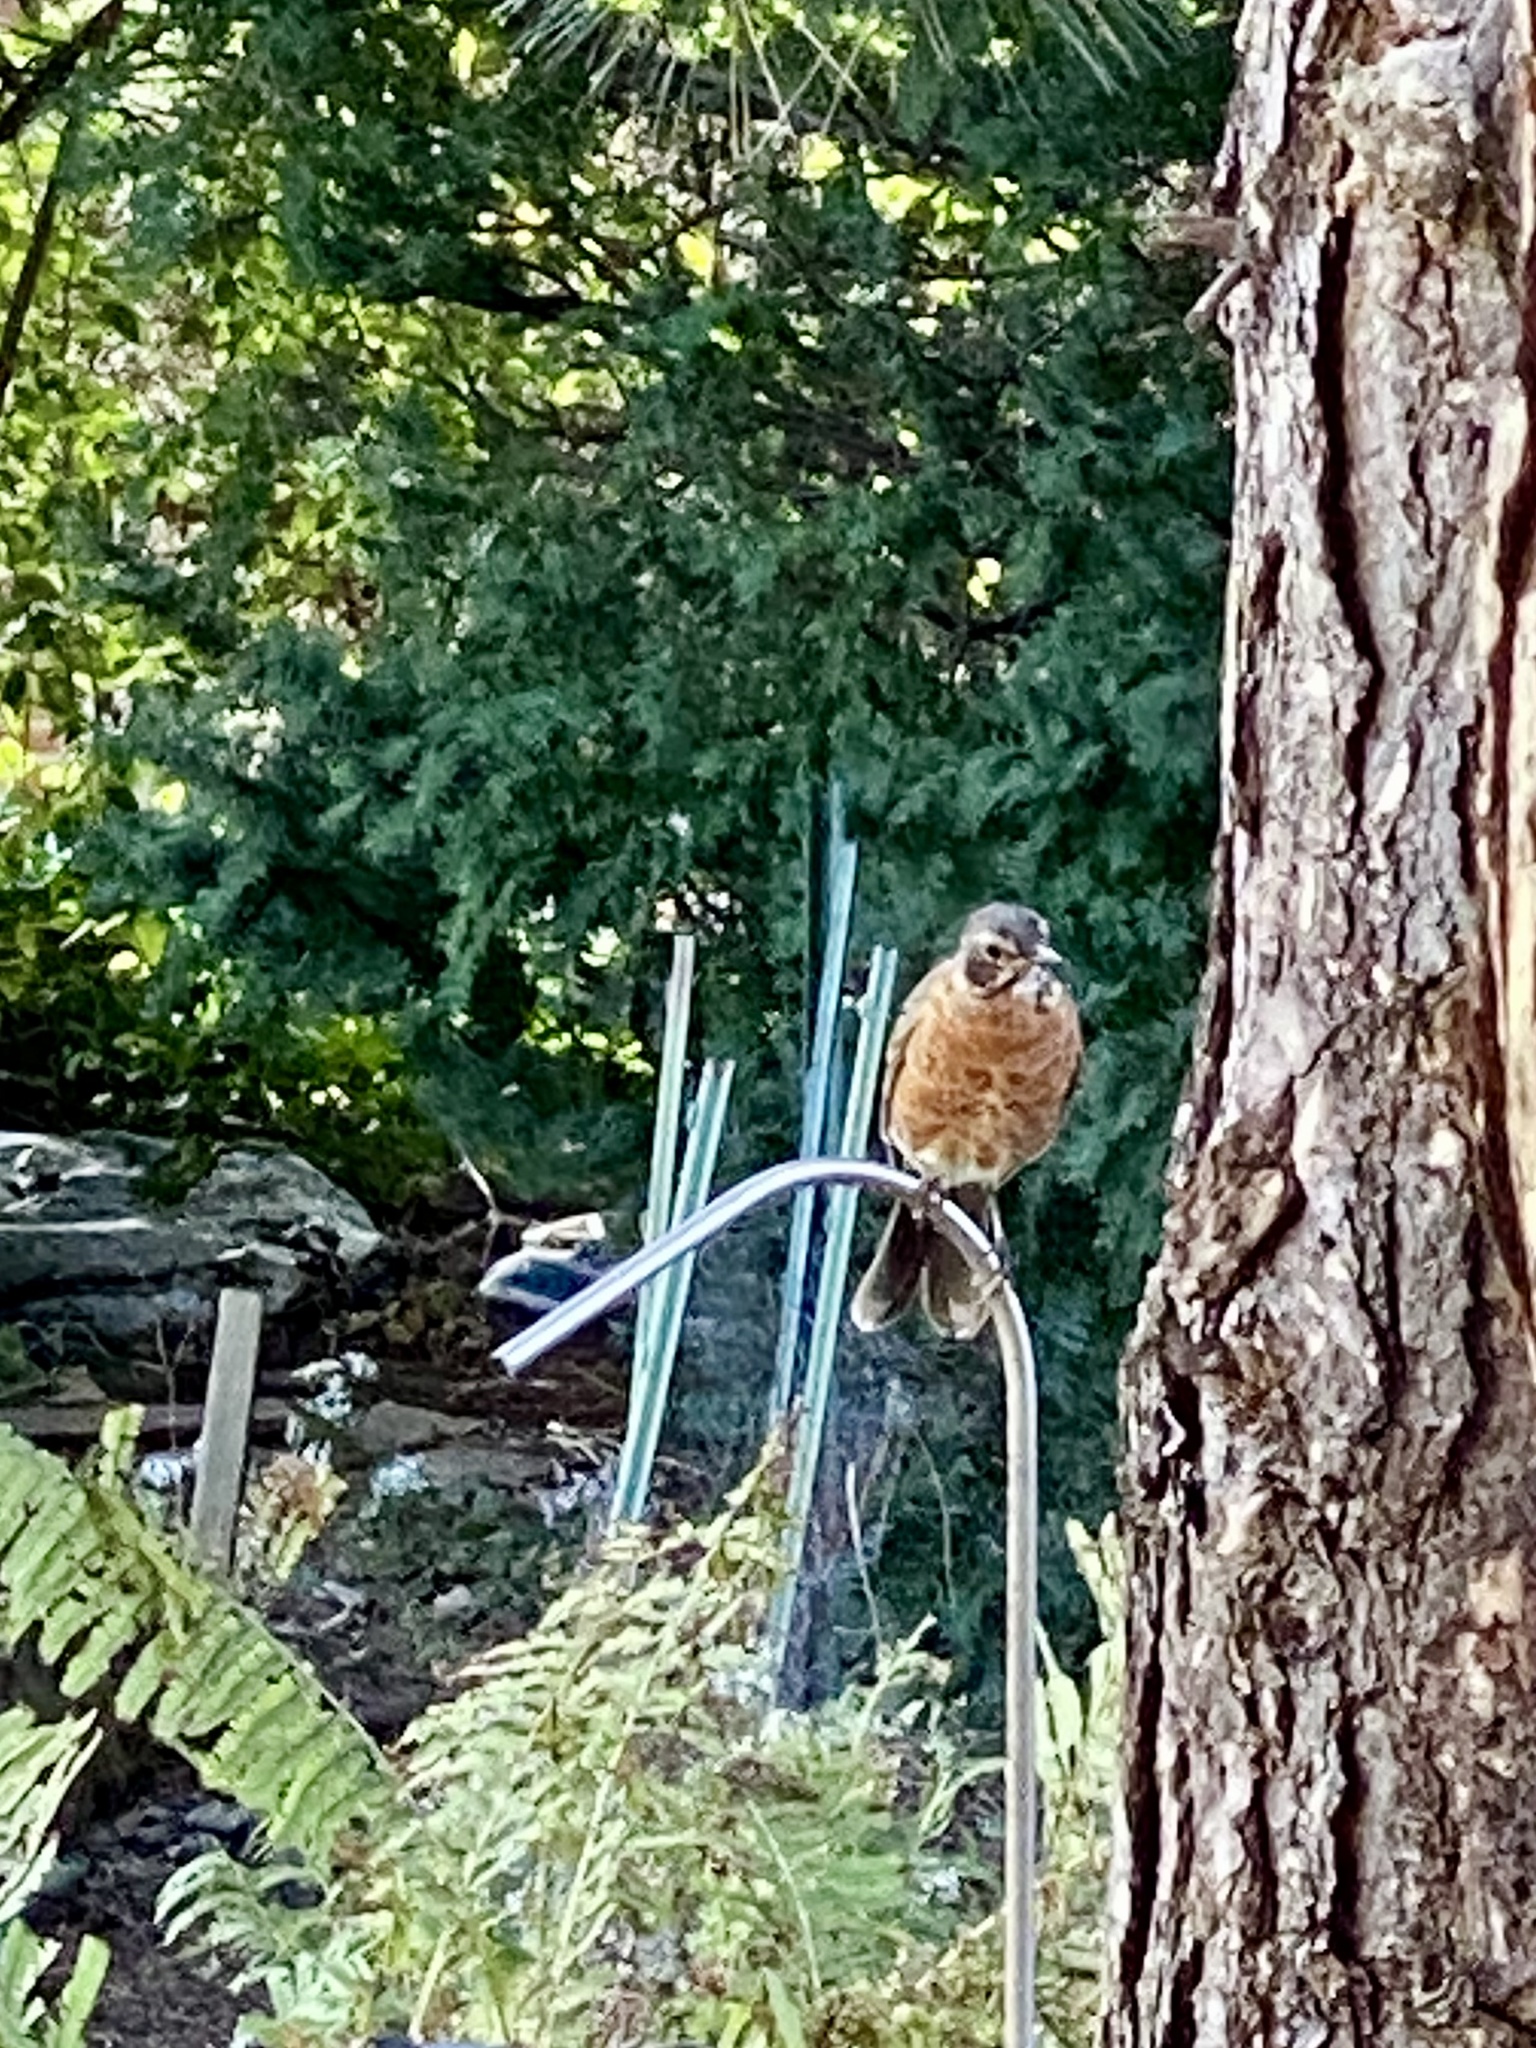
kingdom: Animalia
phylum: Chordata
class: Aves
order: Passeriformes
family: Turdidae
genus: Turdus
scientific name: Turdus migratorius
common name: American robin
